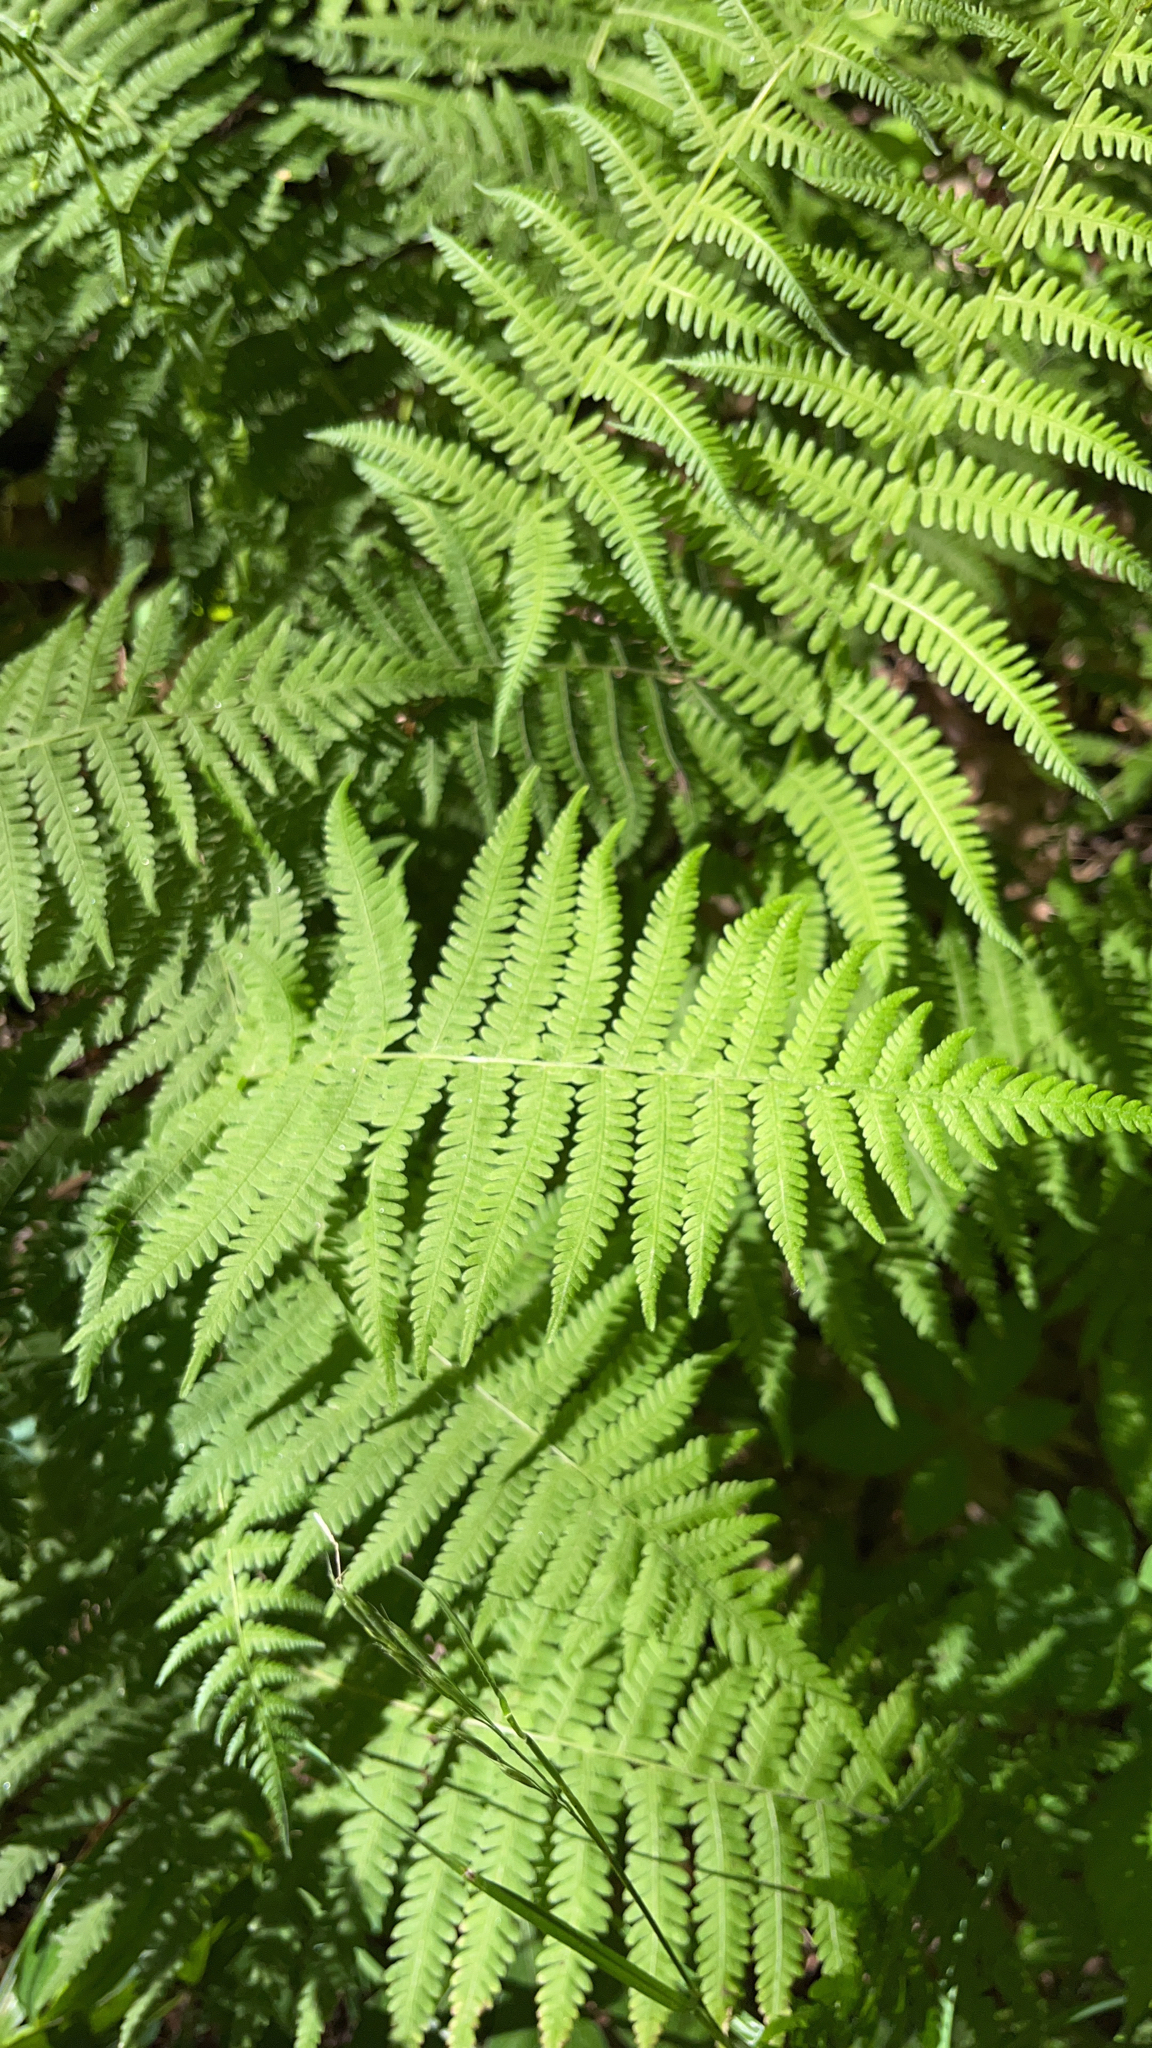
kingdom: Plantae
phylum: Tracheophyta
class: Polypodiopsida
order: Polypodiales
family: Thelypteridaceae
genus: Amauropelta
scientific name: Amauropelta noveboracensis
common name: New york fern
